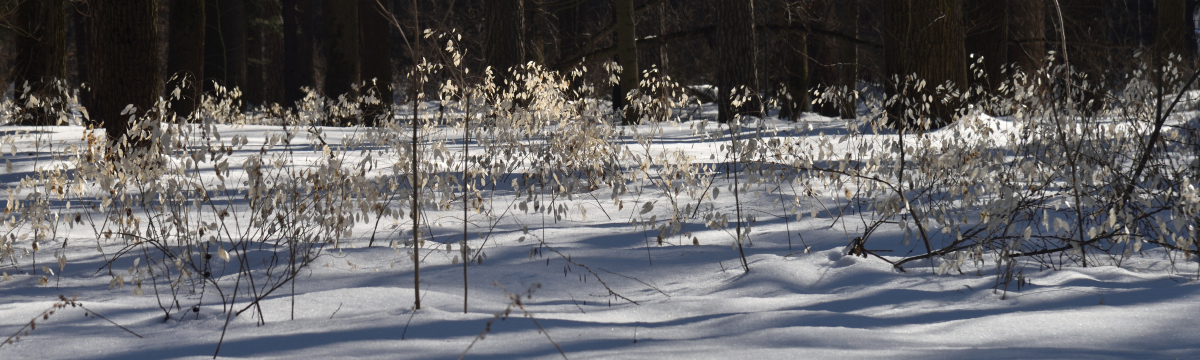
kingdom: Plantae
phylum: Tracheophyta
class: Magnoliopsida
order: Brassicales
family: Brassicaceae
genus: Lunaria
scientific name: Lunaria rediviva
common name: Perennial honesty
